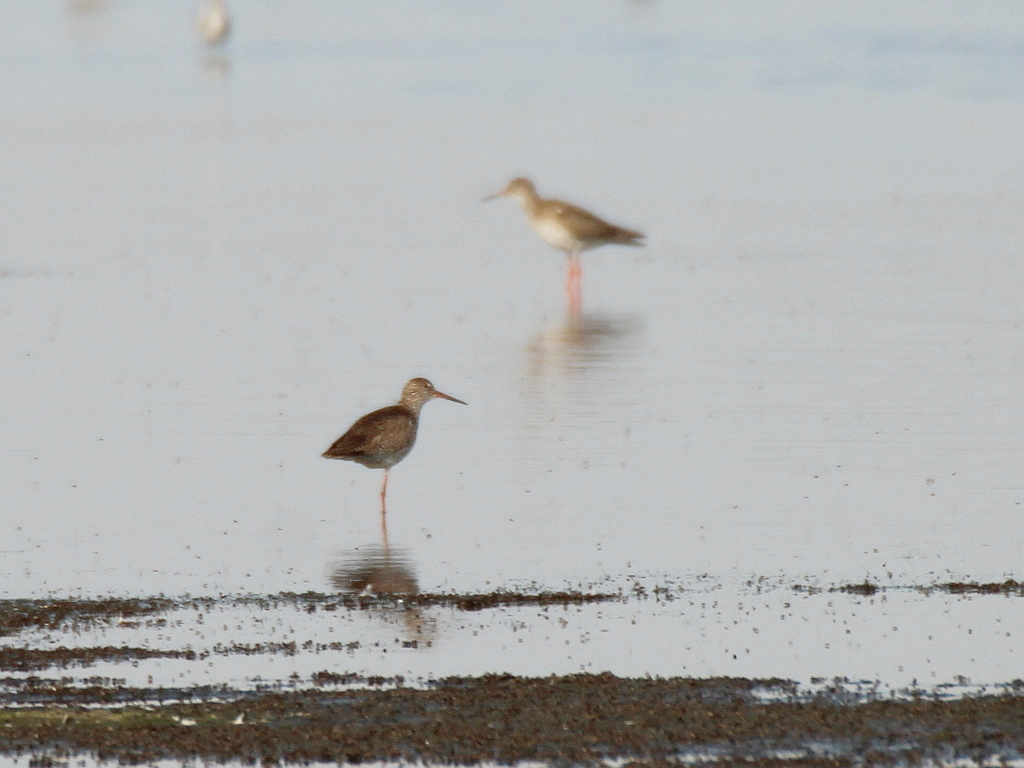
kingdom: Animalia
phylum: Chordata
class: Aves
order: Charadriiformes
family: Scolopacidae
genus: Tringa
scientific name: Tringa totanus
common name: Common redshank
